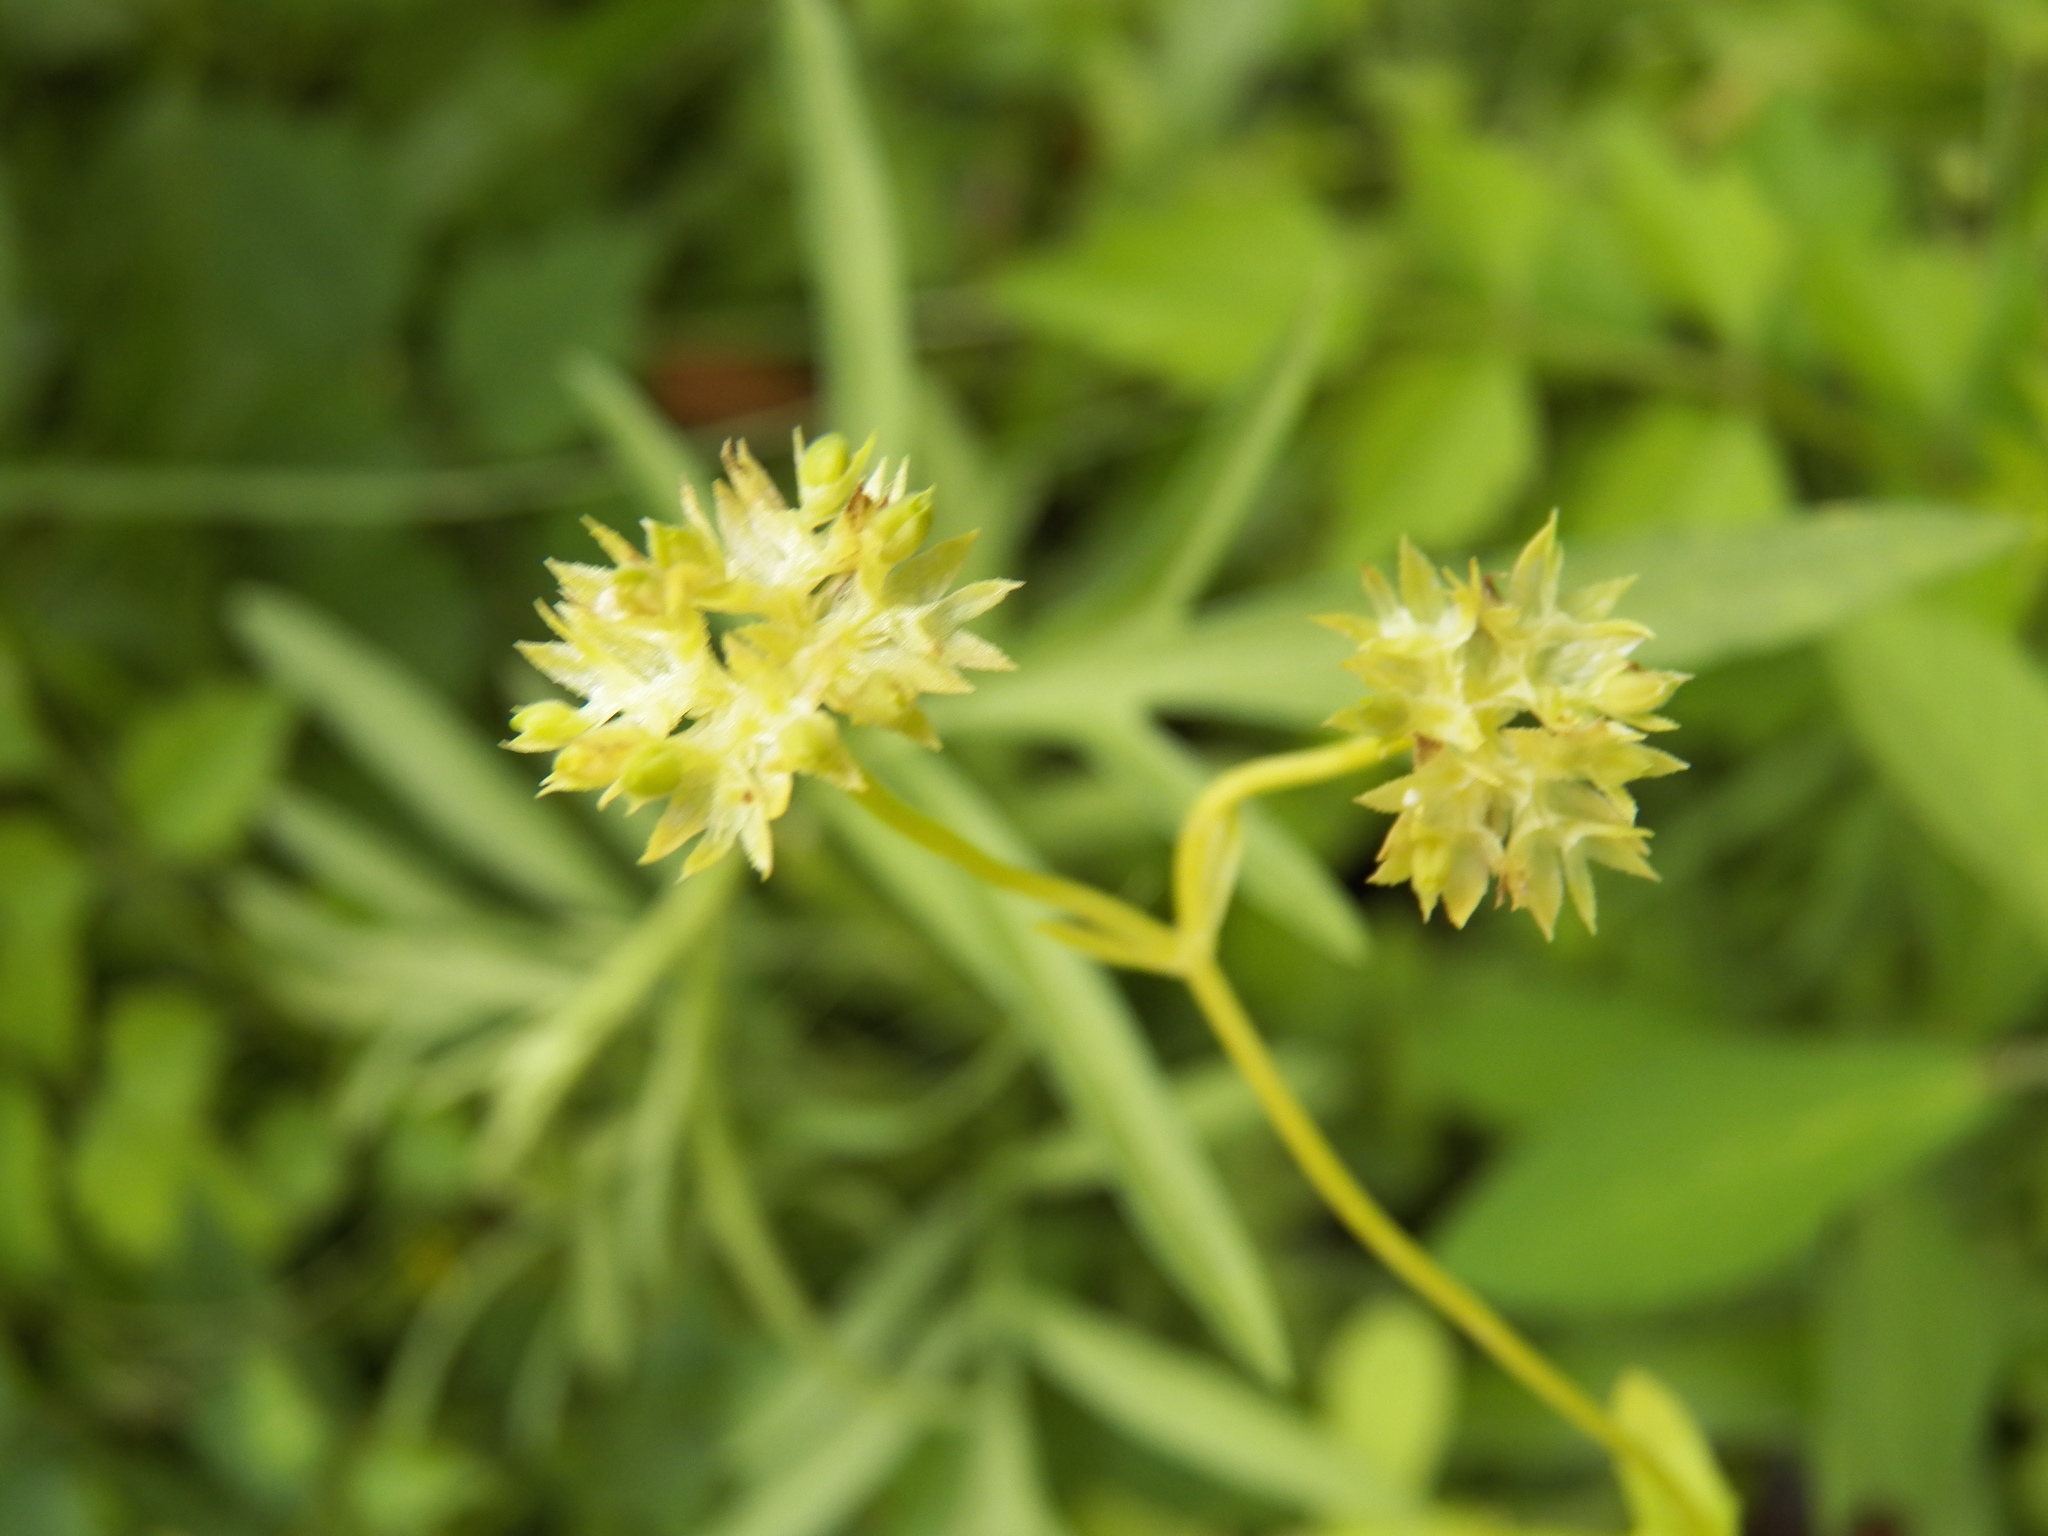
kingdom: Plantae
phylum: Tracheophyta
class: Magnoliopsida
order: Dipsacales
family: Caprifoliaceae
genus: Valerianella
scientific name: Valerianella radiata
